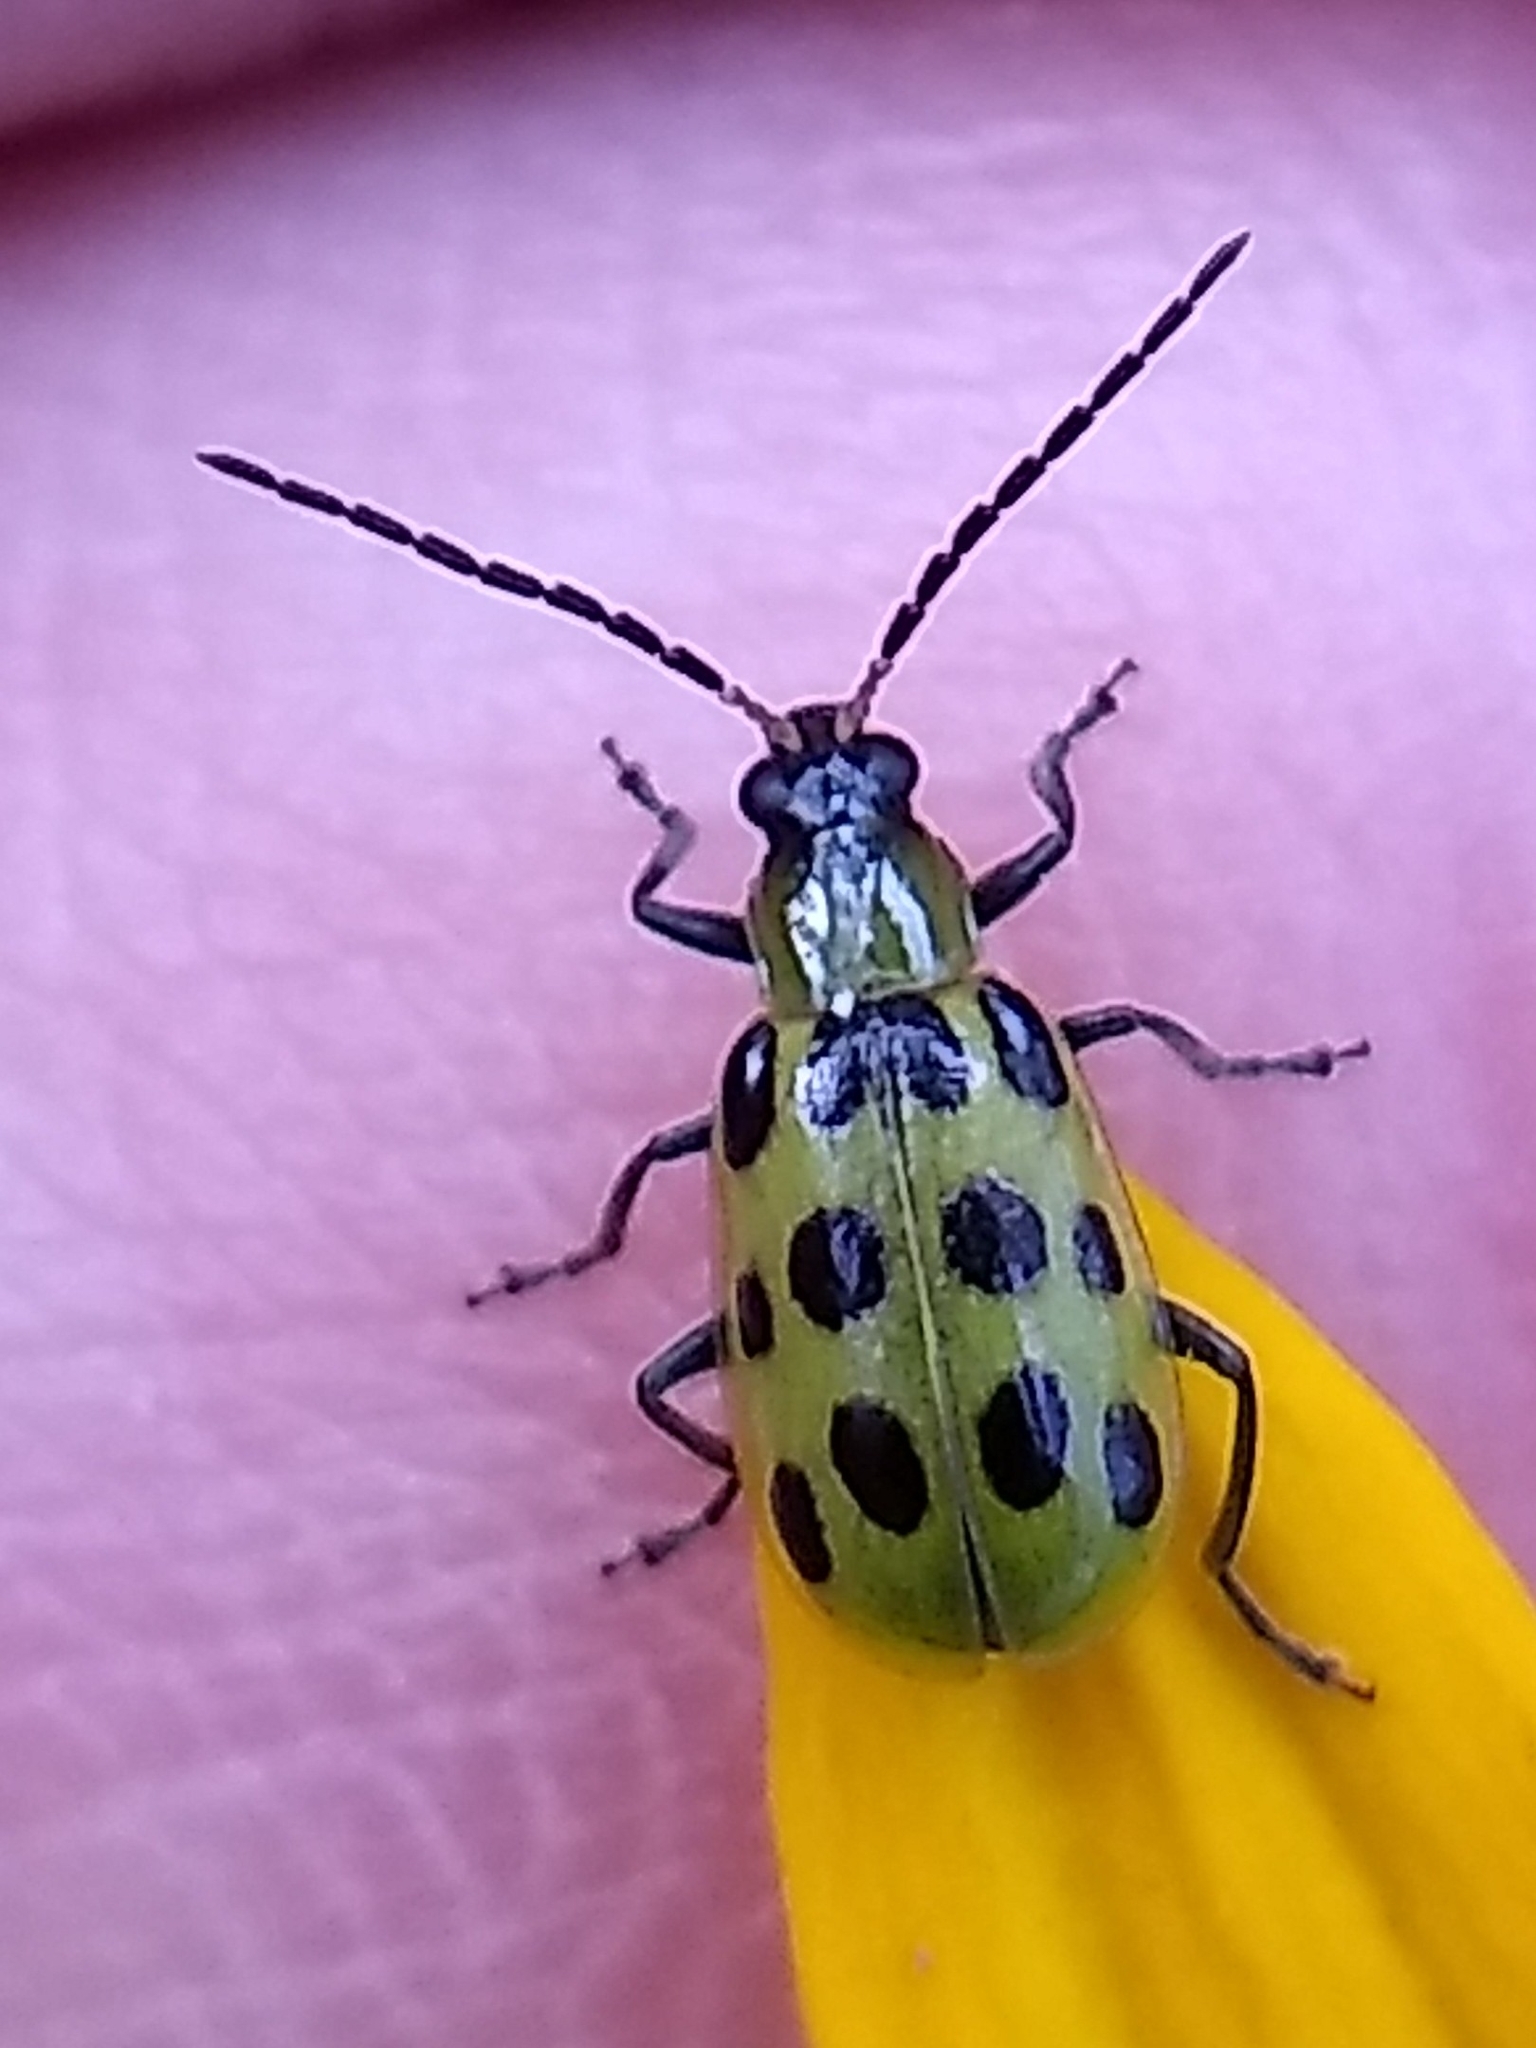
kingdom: Animalia
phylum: Arthropoda
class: Insecta
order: Coleoptera
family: Chrysomelidae
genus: Diabrotica
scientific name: Diabrotica undecimpunctata
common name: Spotted cucumber beetle
